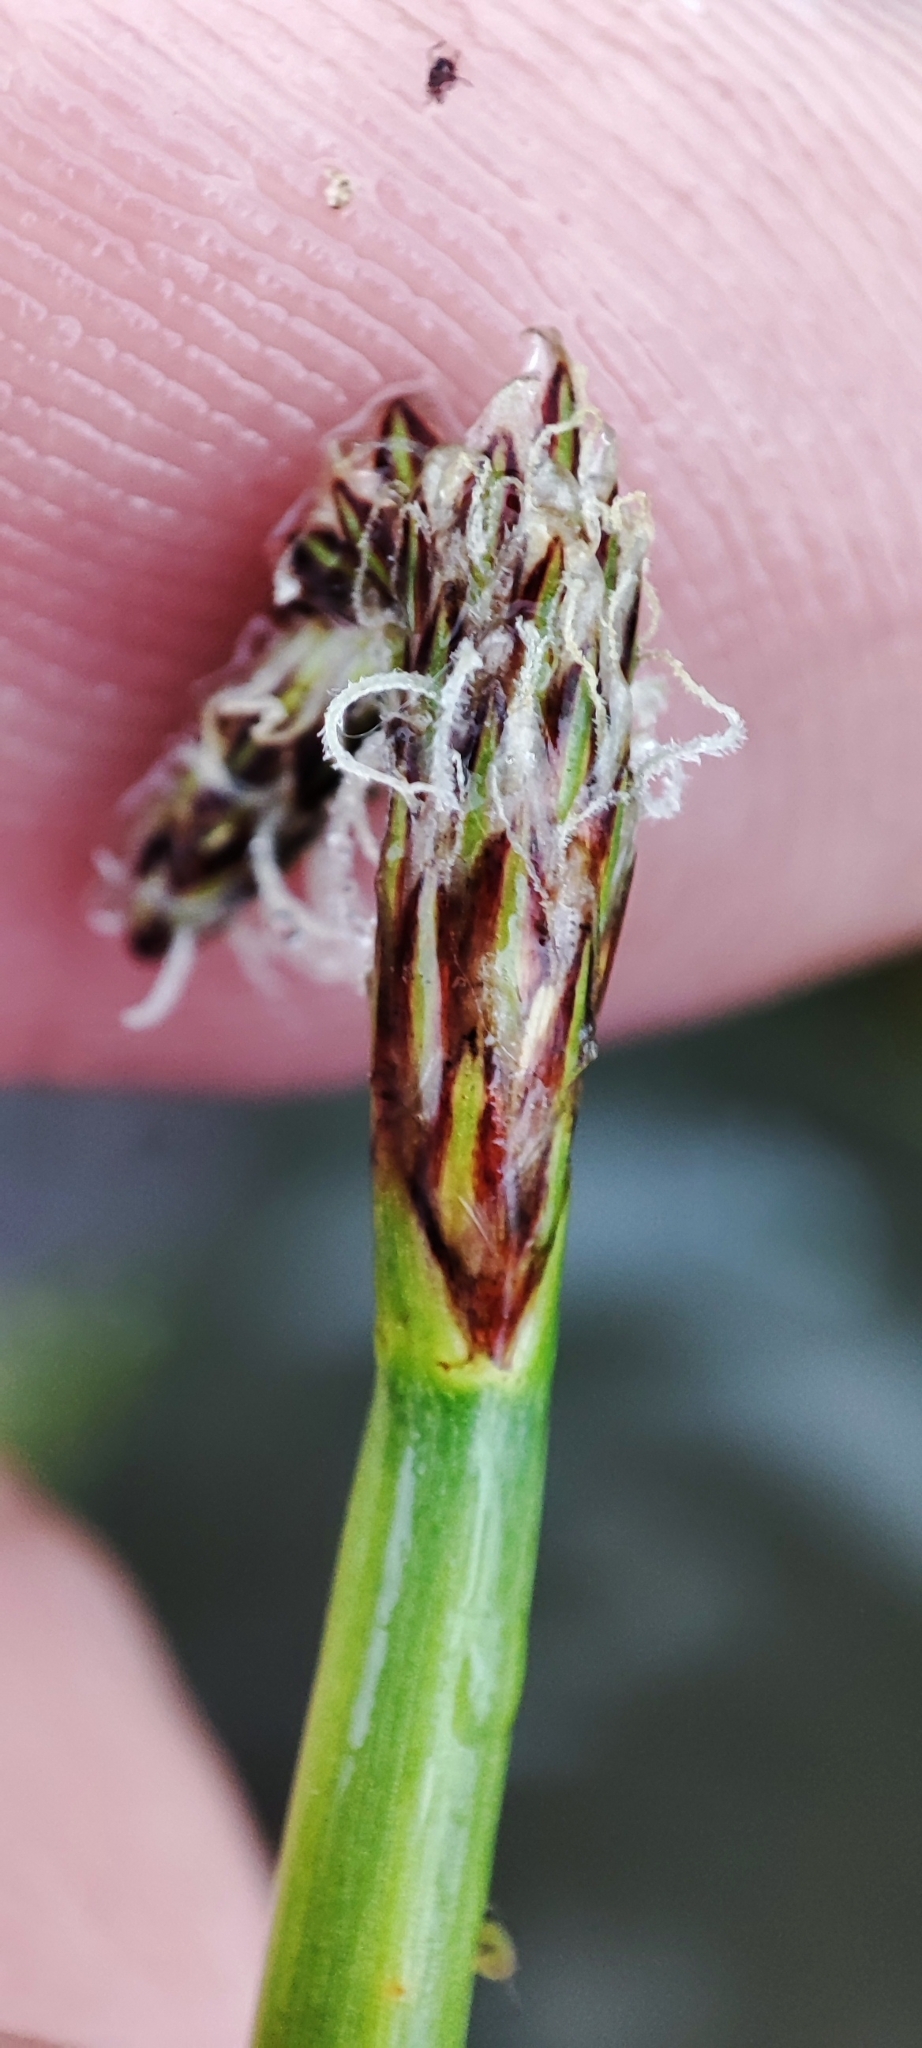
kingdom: Plantae
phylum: Tracheophyta
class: Liliopsida
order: Poales
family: Cyperaceae
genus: Eleocharis
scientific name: Eleocharis palustris
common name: Common spike-rush
